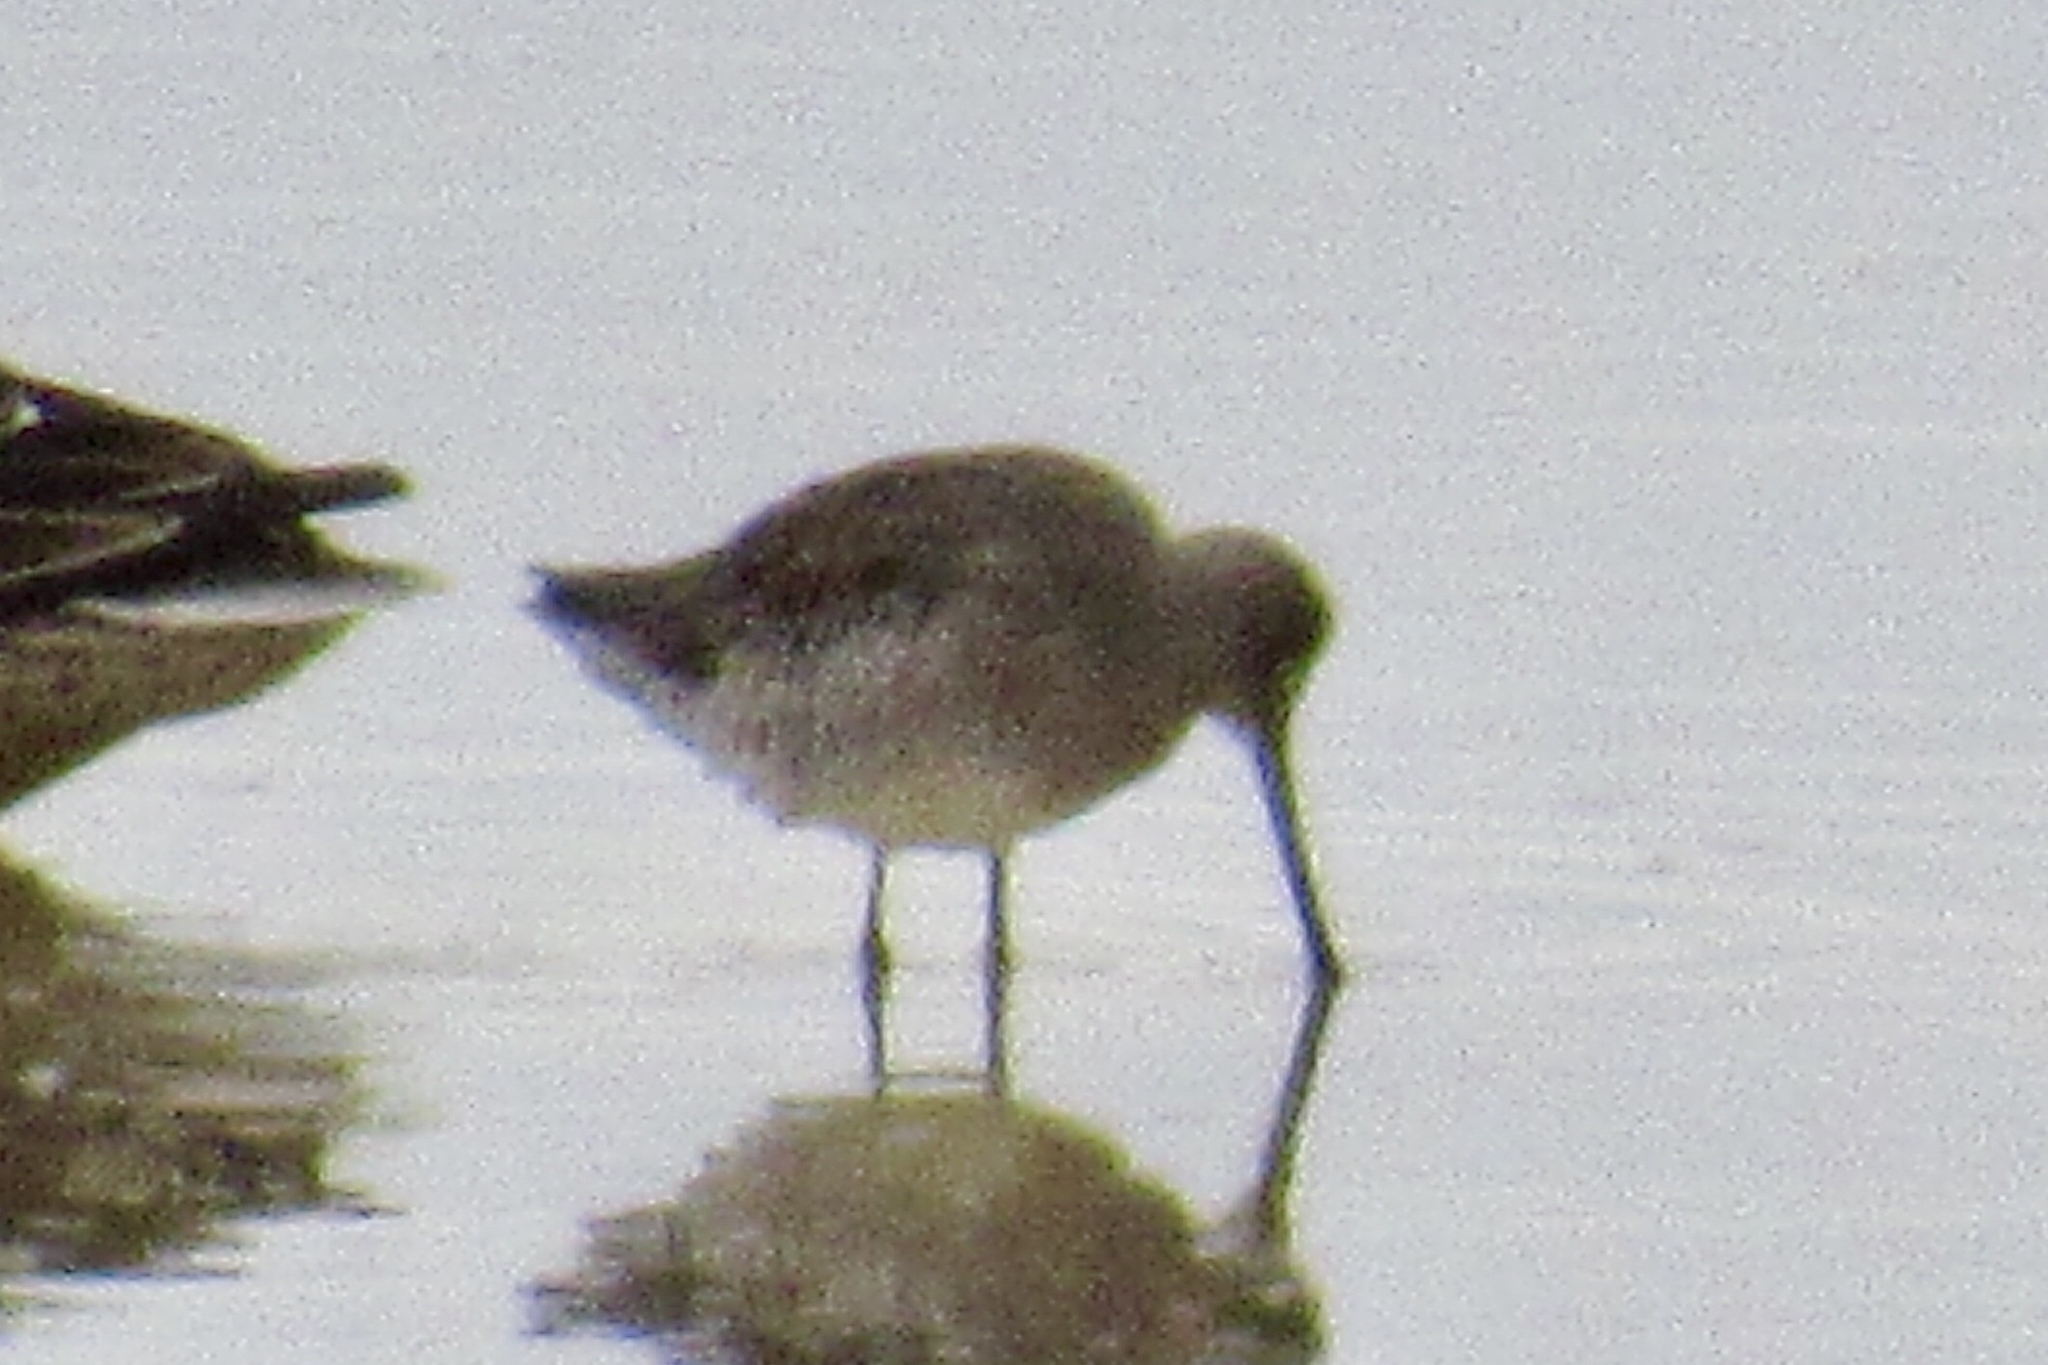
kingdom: Animalia
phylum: Chordata
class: Aves
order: Charadriiformes
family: Scolopacidae
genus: Limnodromus
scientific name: Limnodromus scolopaceus
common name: Long-billed dowitcher
